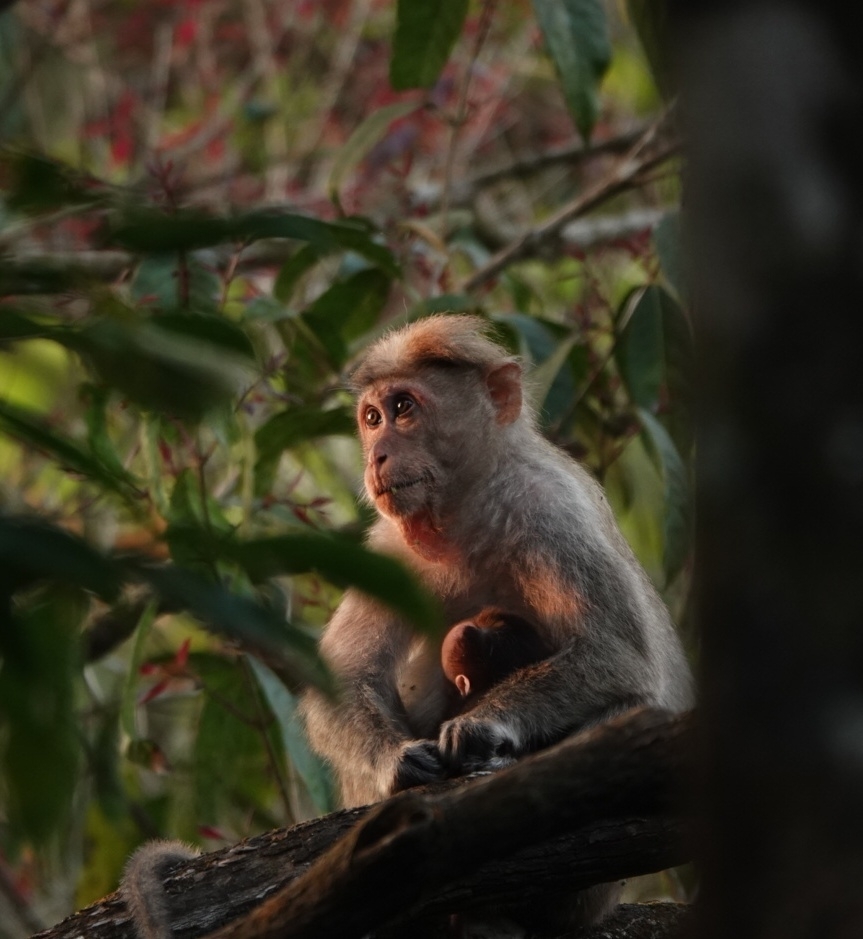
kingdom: Animalia
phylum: Chordata
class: Mammalia
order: Primates
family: Cercopithecidae
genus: Macaca
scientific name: Macaca radiata
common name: Bonnet macaque
